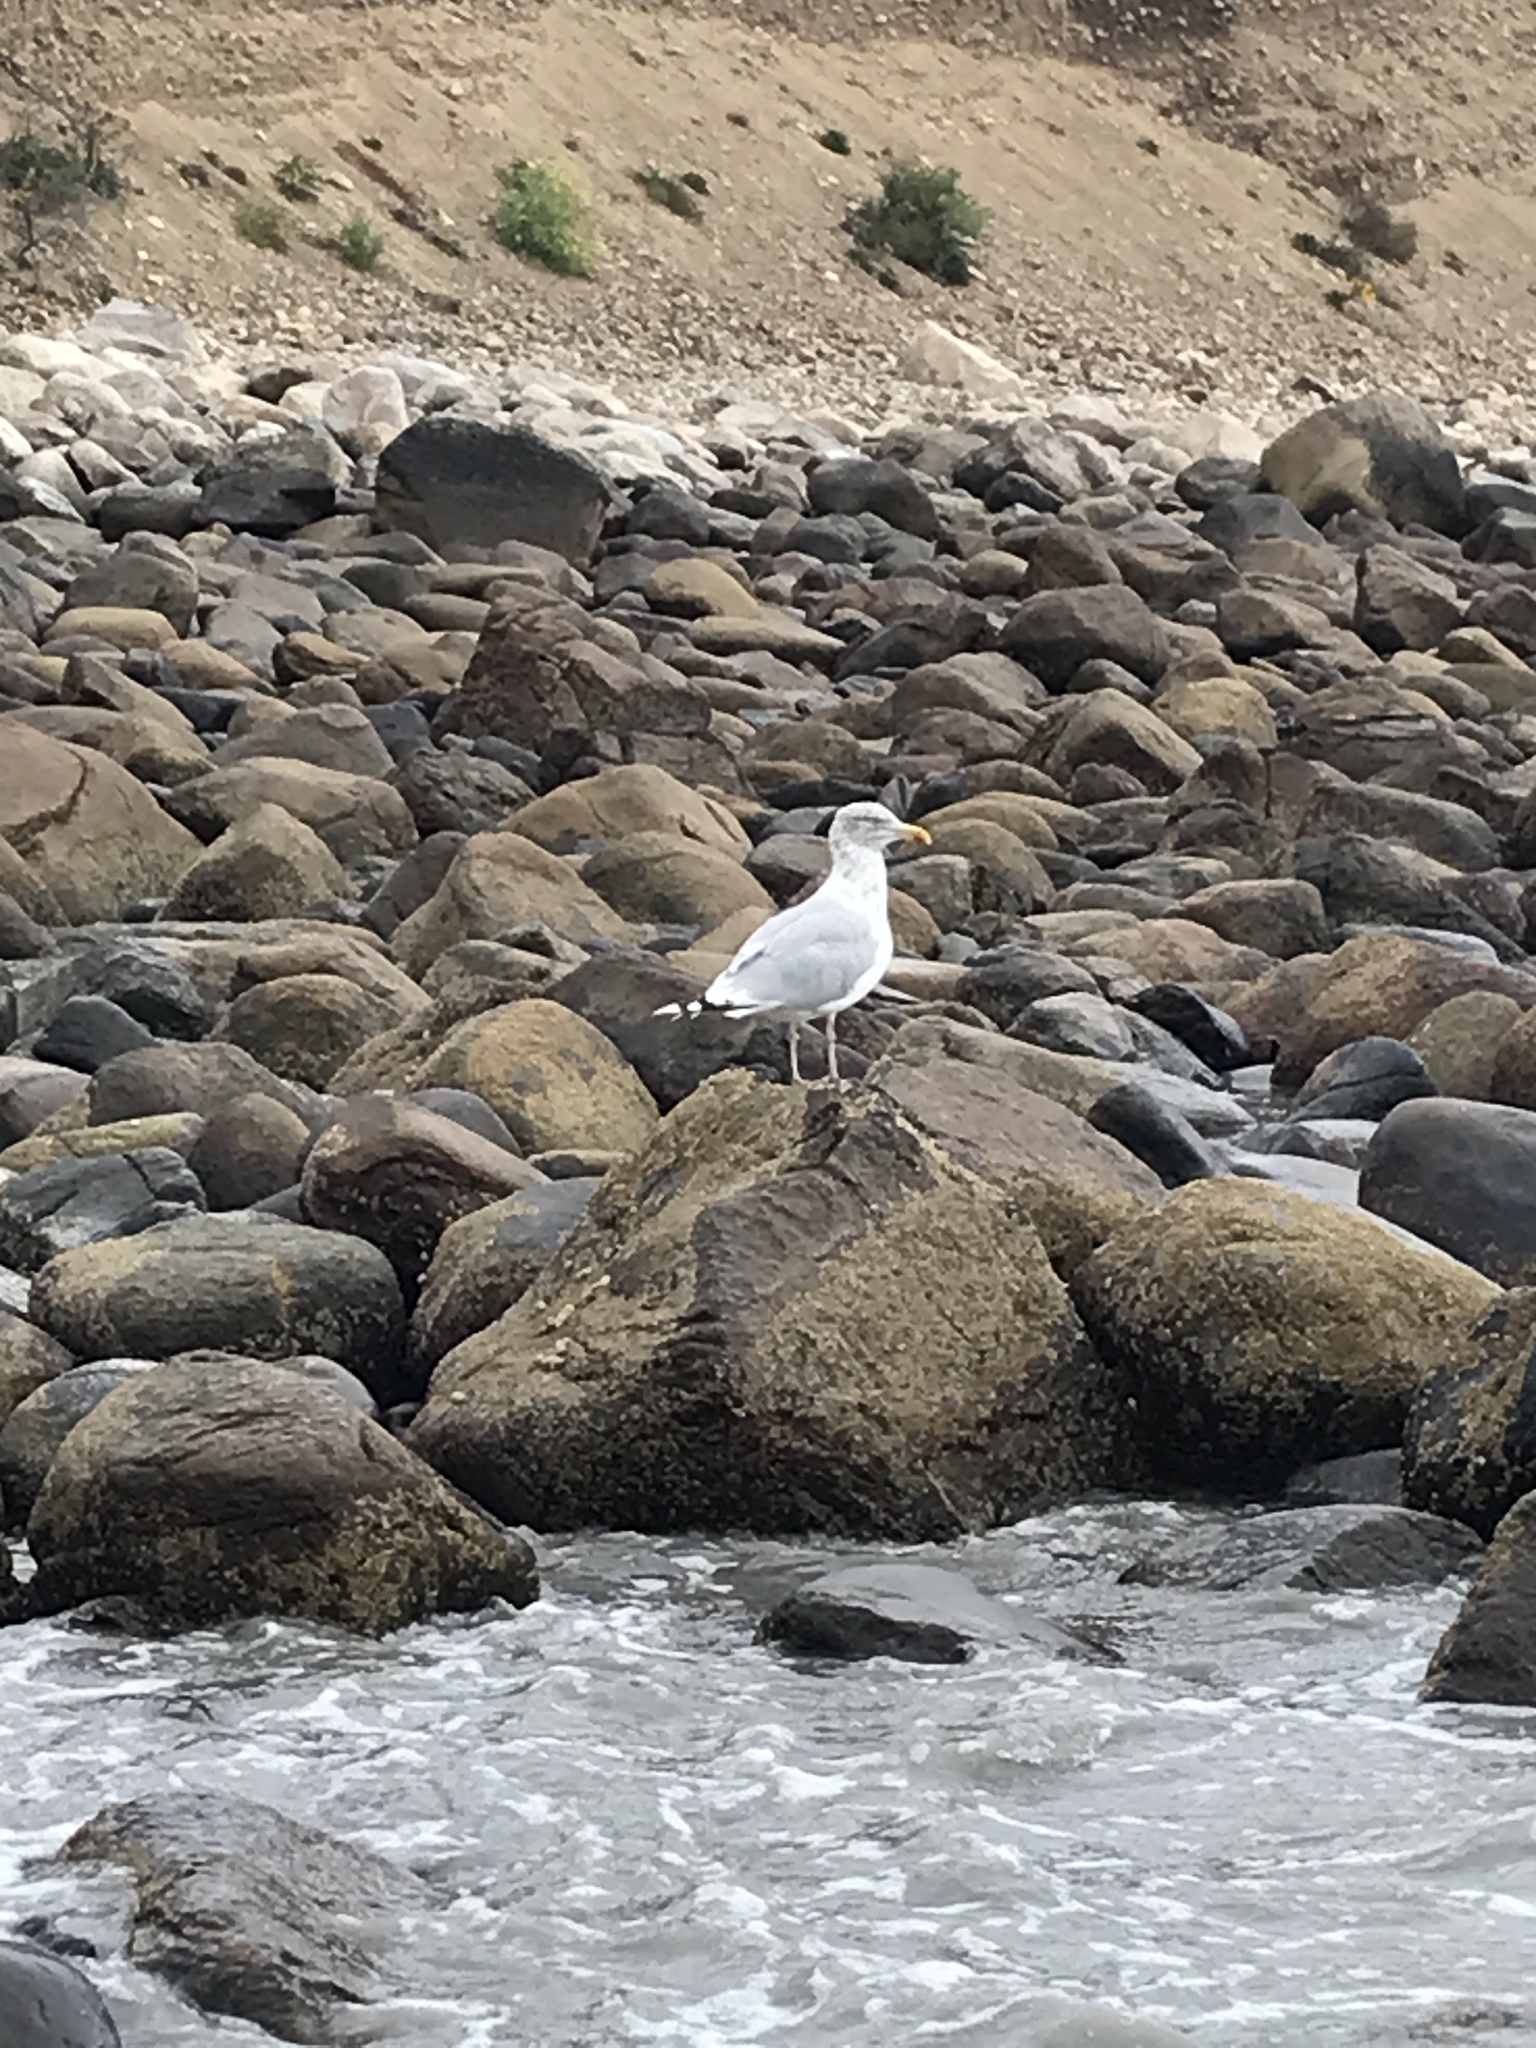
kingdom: Animalia
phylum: Chordata
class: Aves
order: Charadriiformes
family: Laridae
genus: Larus
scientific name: Larus argentatus
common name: Herring gull
